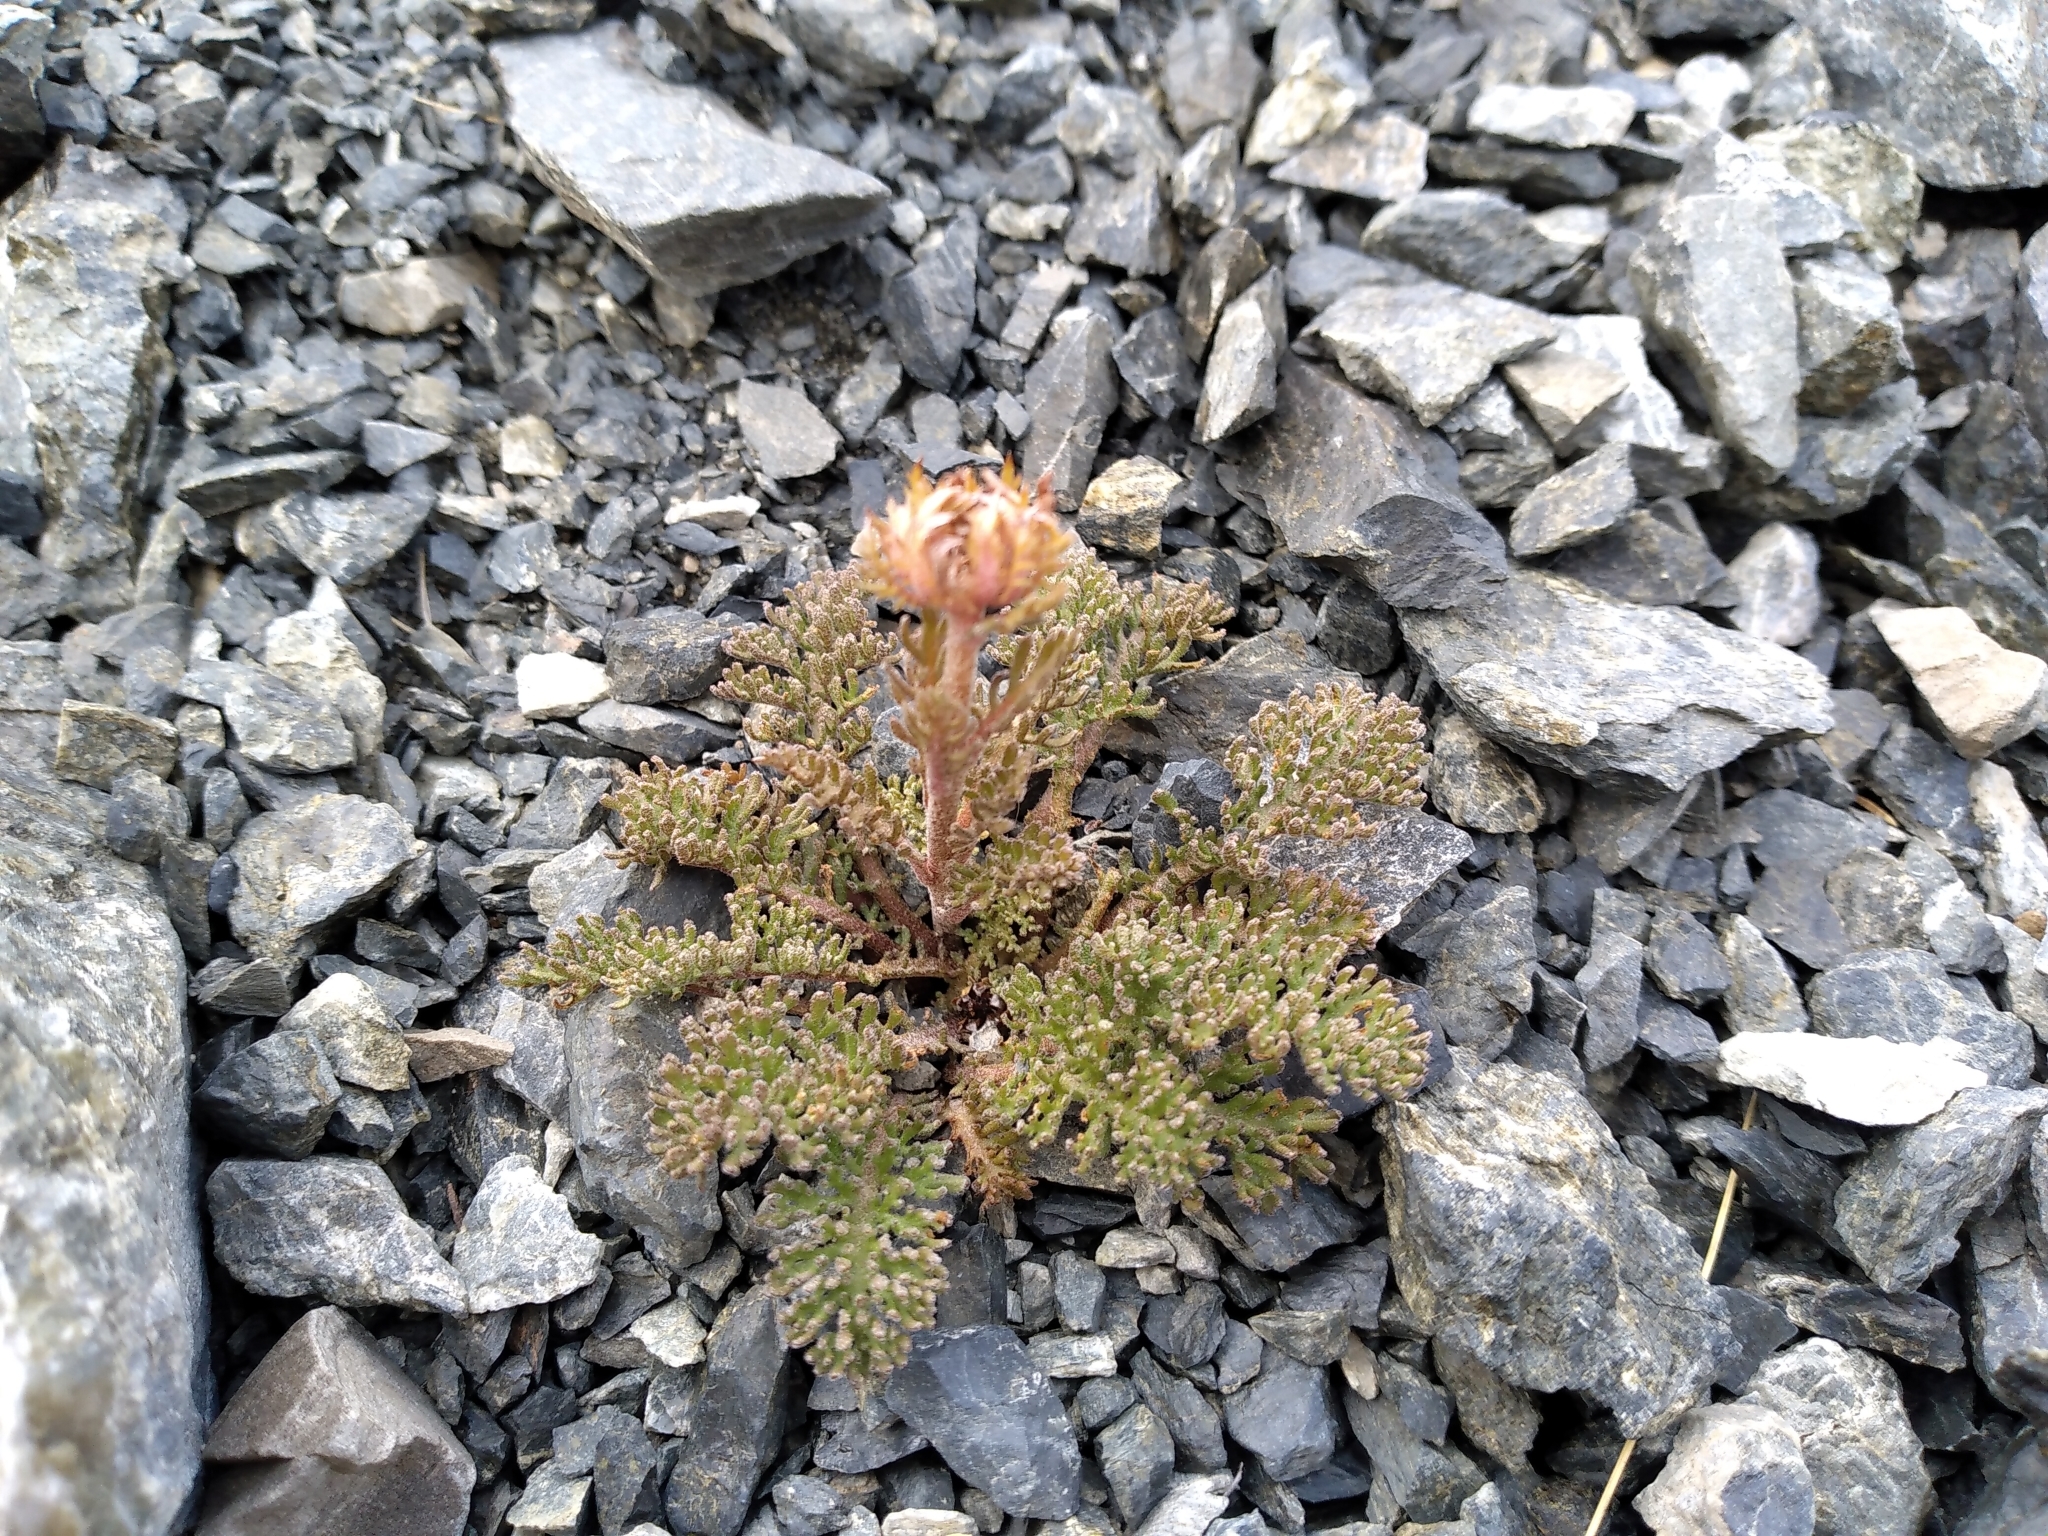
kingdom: Plantae
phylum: Tracheophyta
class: Magnoliopsida
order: Asterales
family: Asteraceae
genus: Leptinella
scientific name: Leptinella atrata
